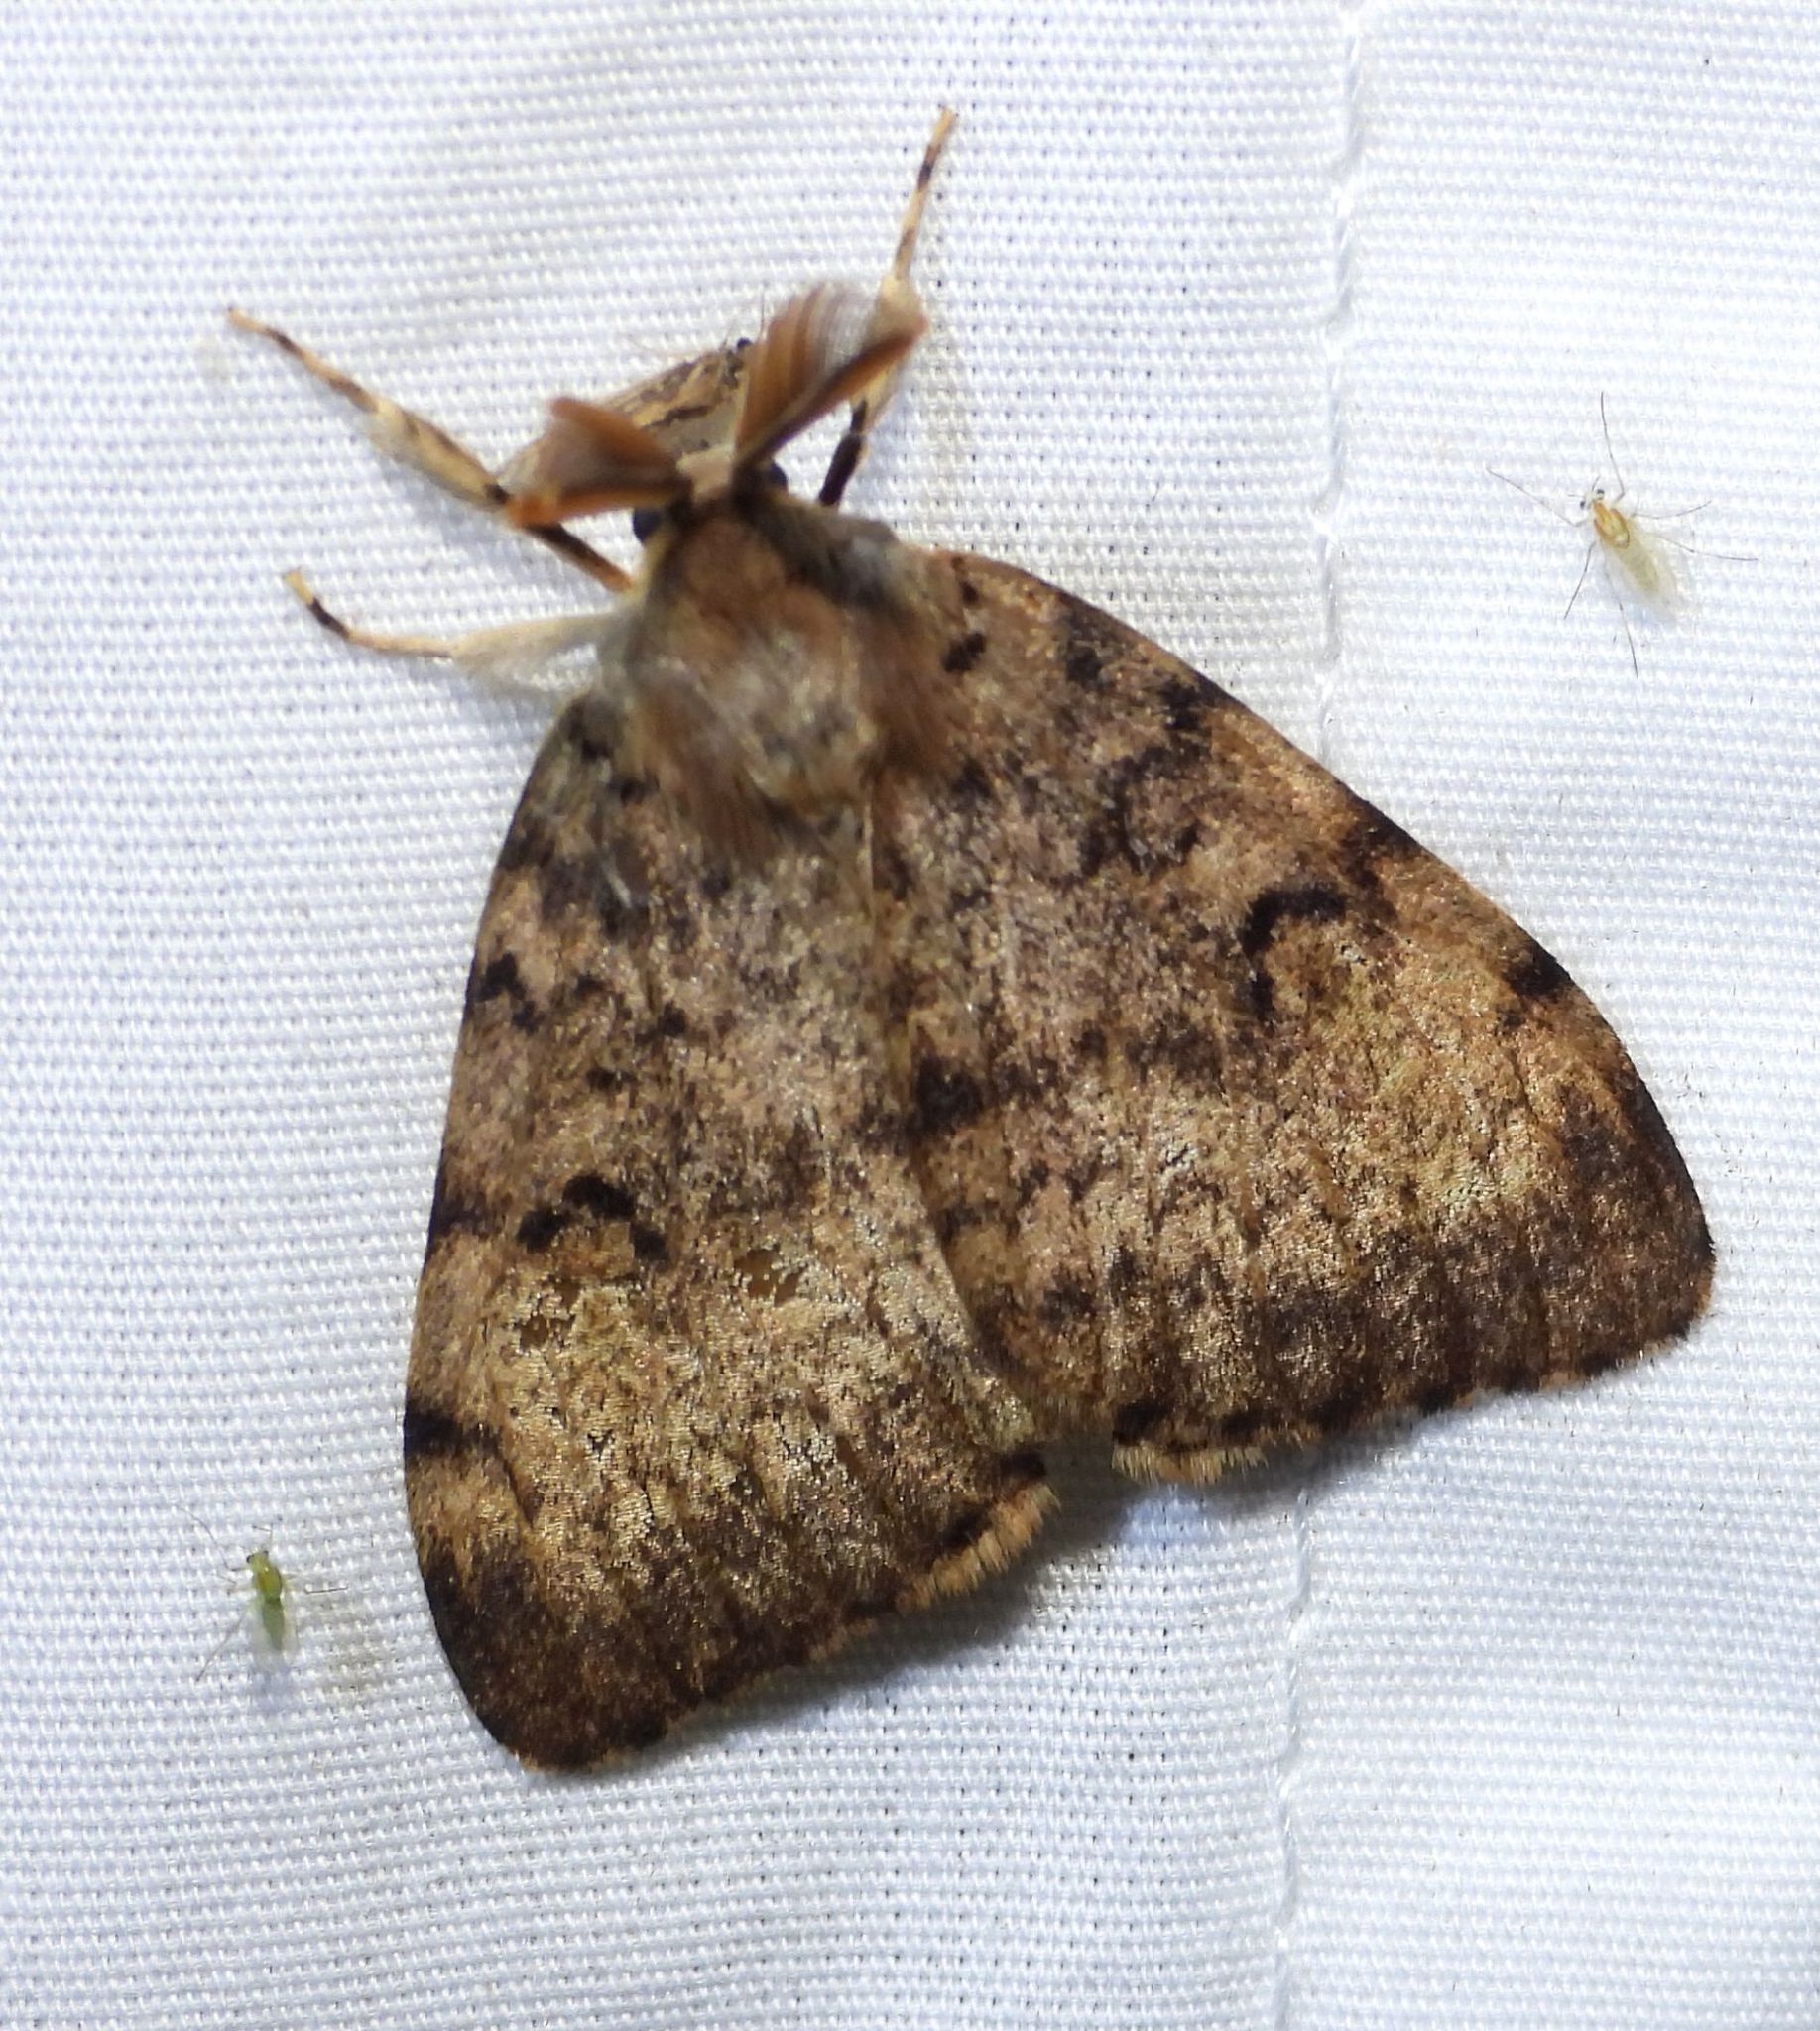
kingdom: Animalia
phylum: Arthropoda
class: Insecta
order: Lepidoptera
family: Erebidae
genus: Lymantria
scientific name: Lymantria dispar
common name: Gypsy moth
